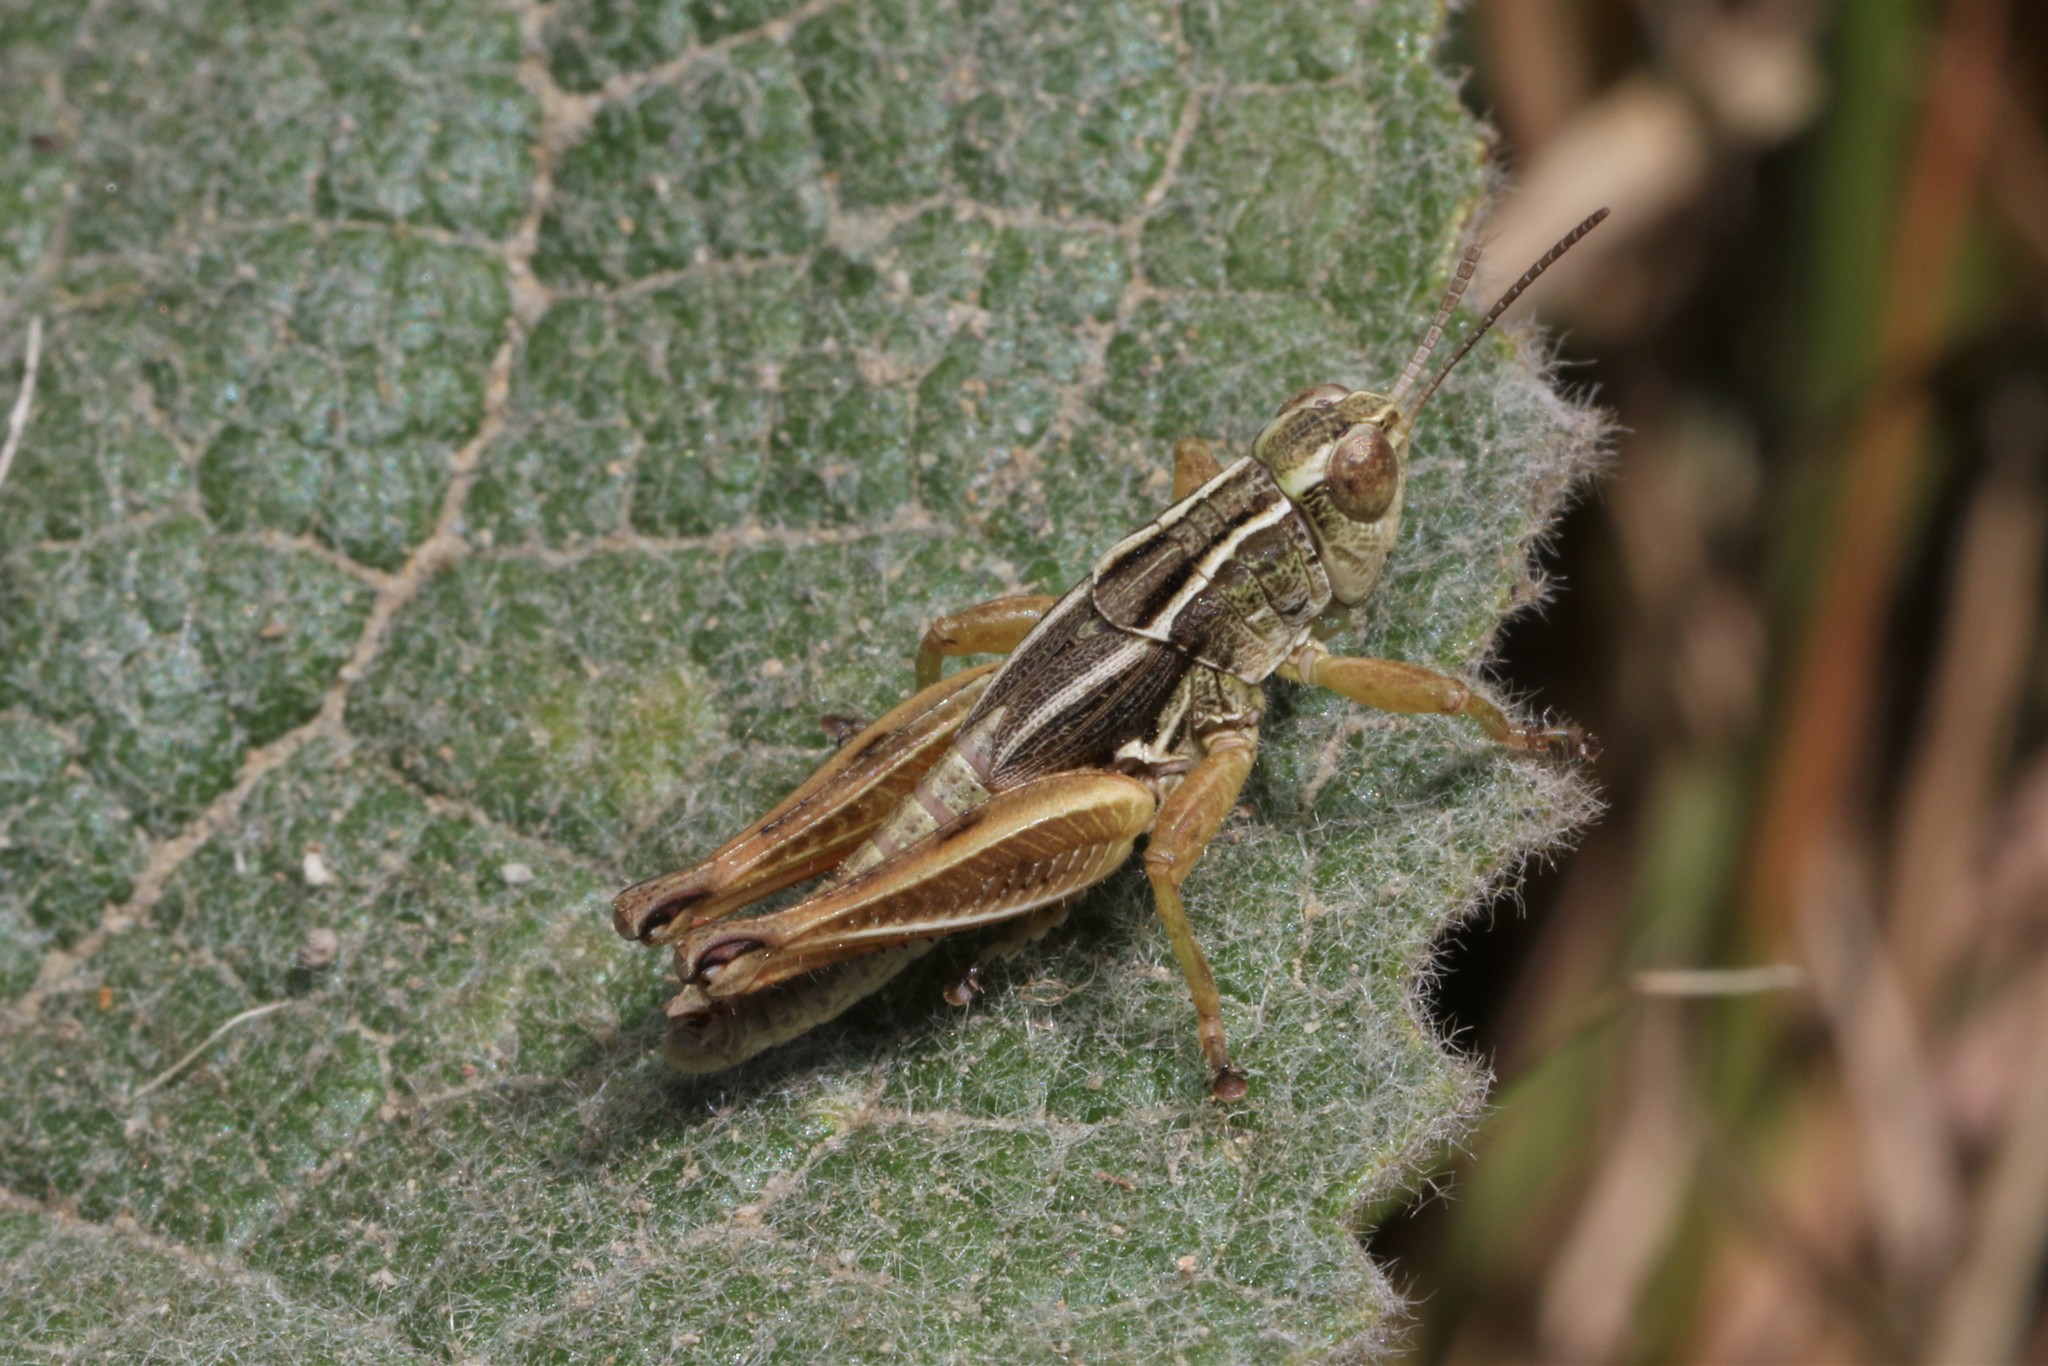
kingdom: Animalia
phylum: Arthropoda
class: Insecta
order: Orthoptera
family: Acrididae
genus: Phaulacridium
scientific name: Phaulacridium marginale
